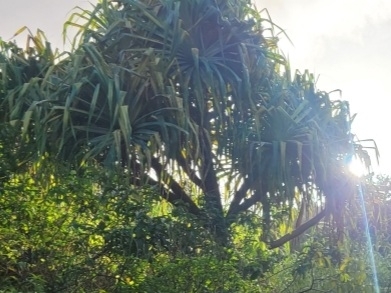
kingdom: Plantae
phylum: Tracheophyta
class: Liliopsida
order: Pandanales
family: Pandanaceae
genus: Pandanus
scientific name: Pandanus tectorius
